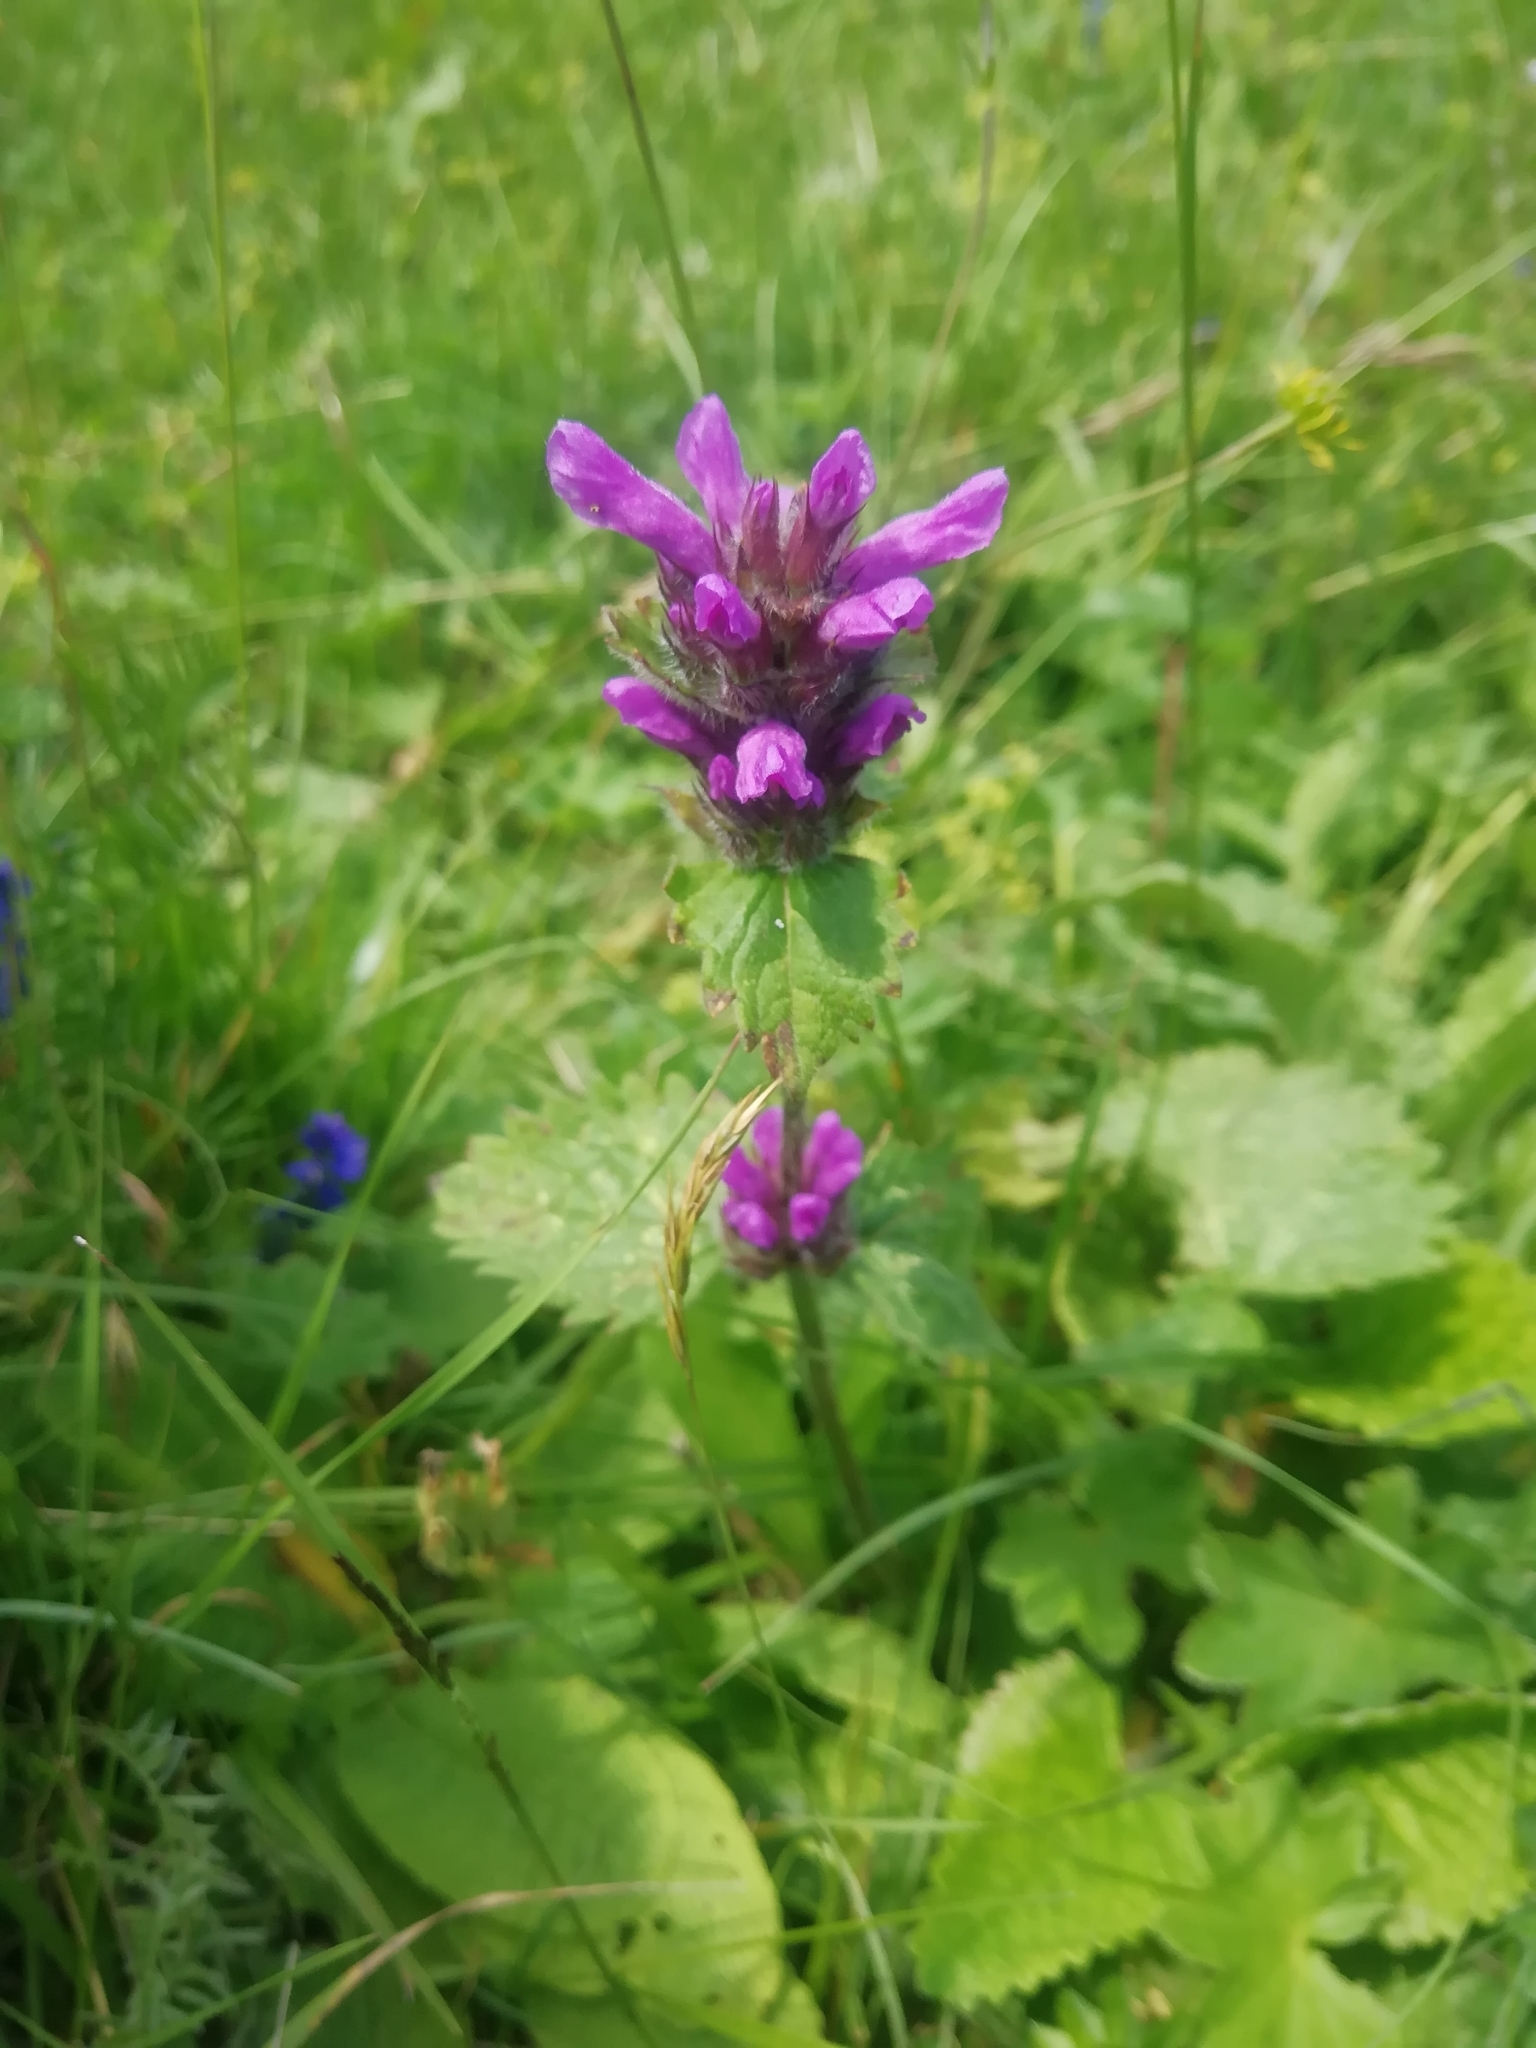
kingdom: Plantae
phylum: Tracheophyta
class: Magnoliopsida
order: Lamiales
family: Lamiaceae
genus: Betonica
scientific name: Betonica macrantha
